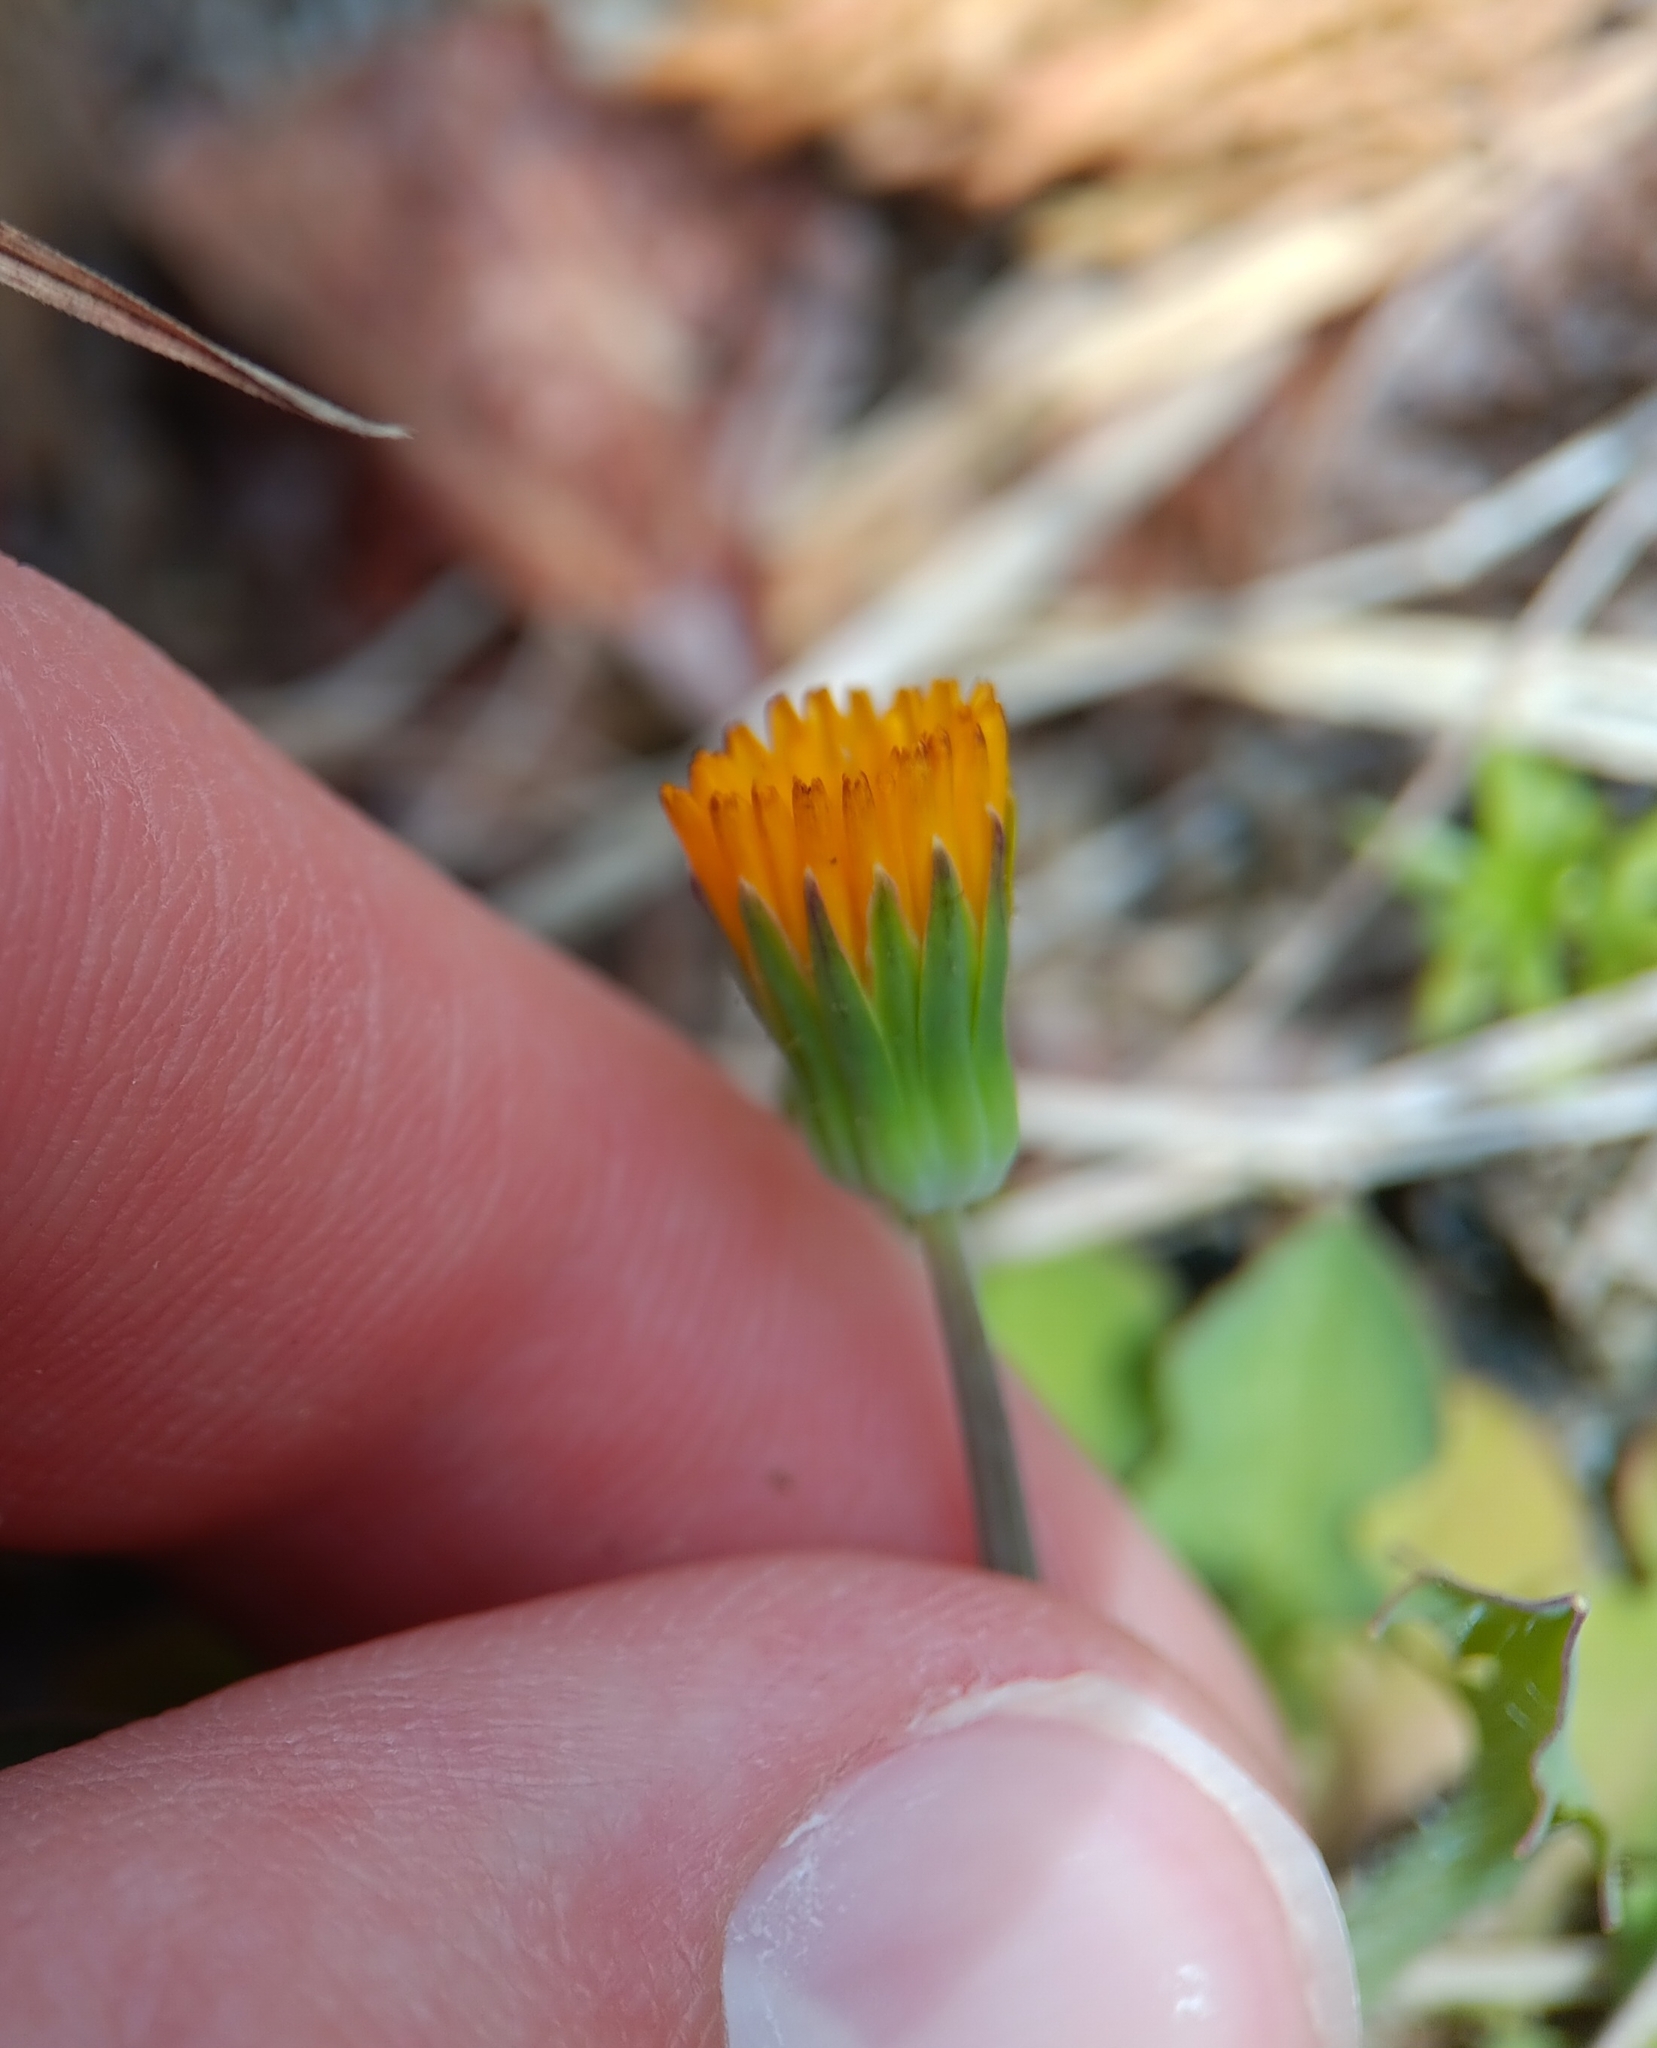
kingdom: Plantae
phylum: Tracheophyta
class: Magnoliopsida
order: Asterales
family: Asteraceae
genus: Krigia
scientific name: Krigia virginica
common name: Virginia dwarf-dandelion
